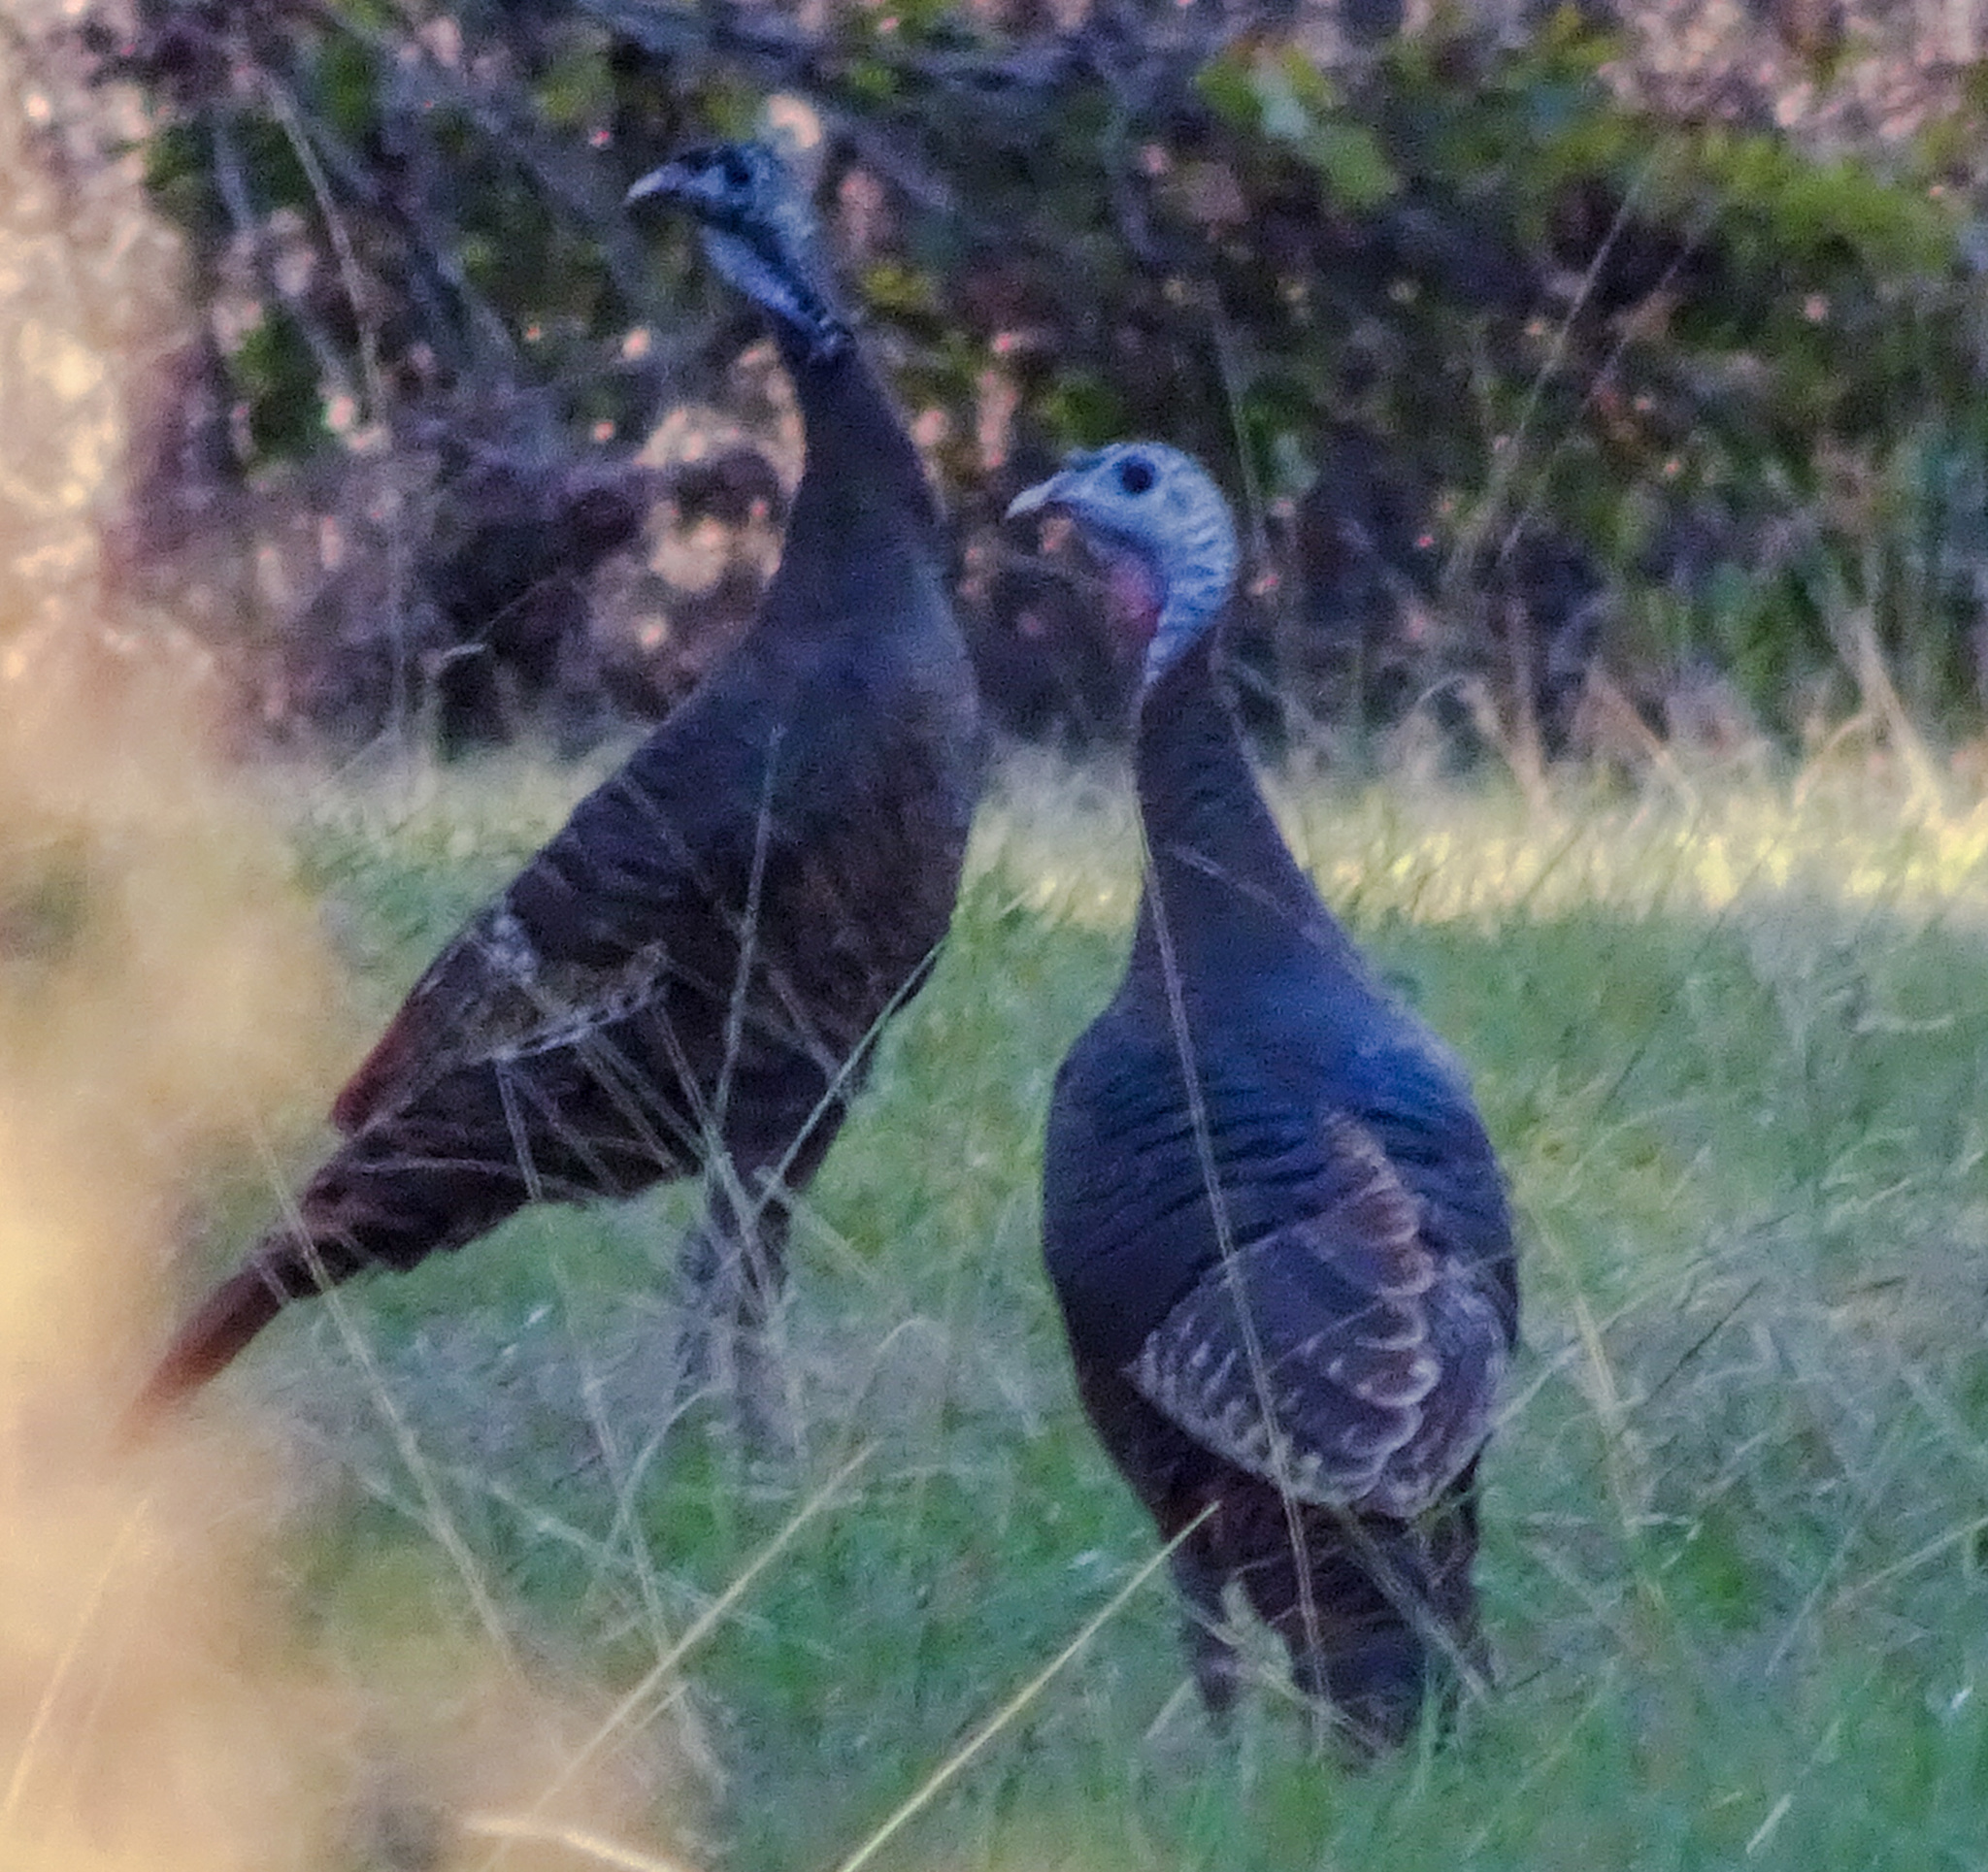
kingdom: Animalia
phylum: Chordata
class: Aves
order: Galliformes
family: Phasianidae
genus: Meleagris
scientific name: Meleagris gallopavo
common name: Wild turkey
